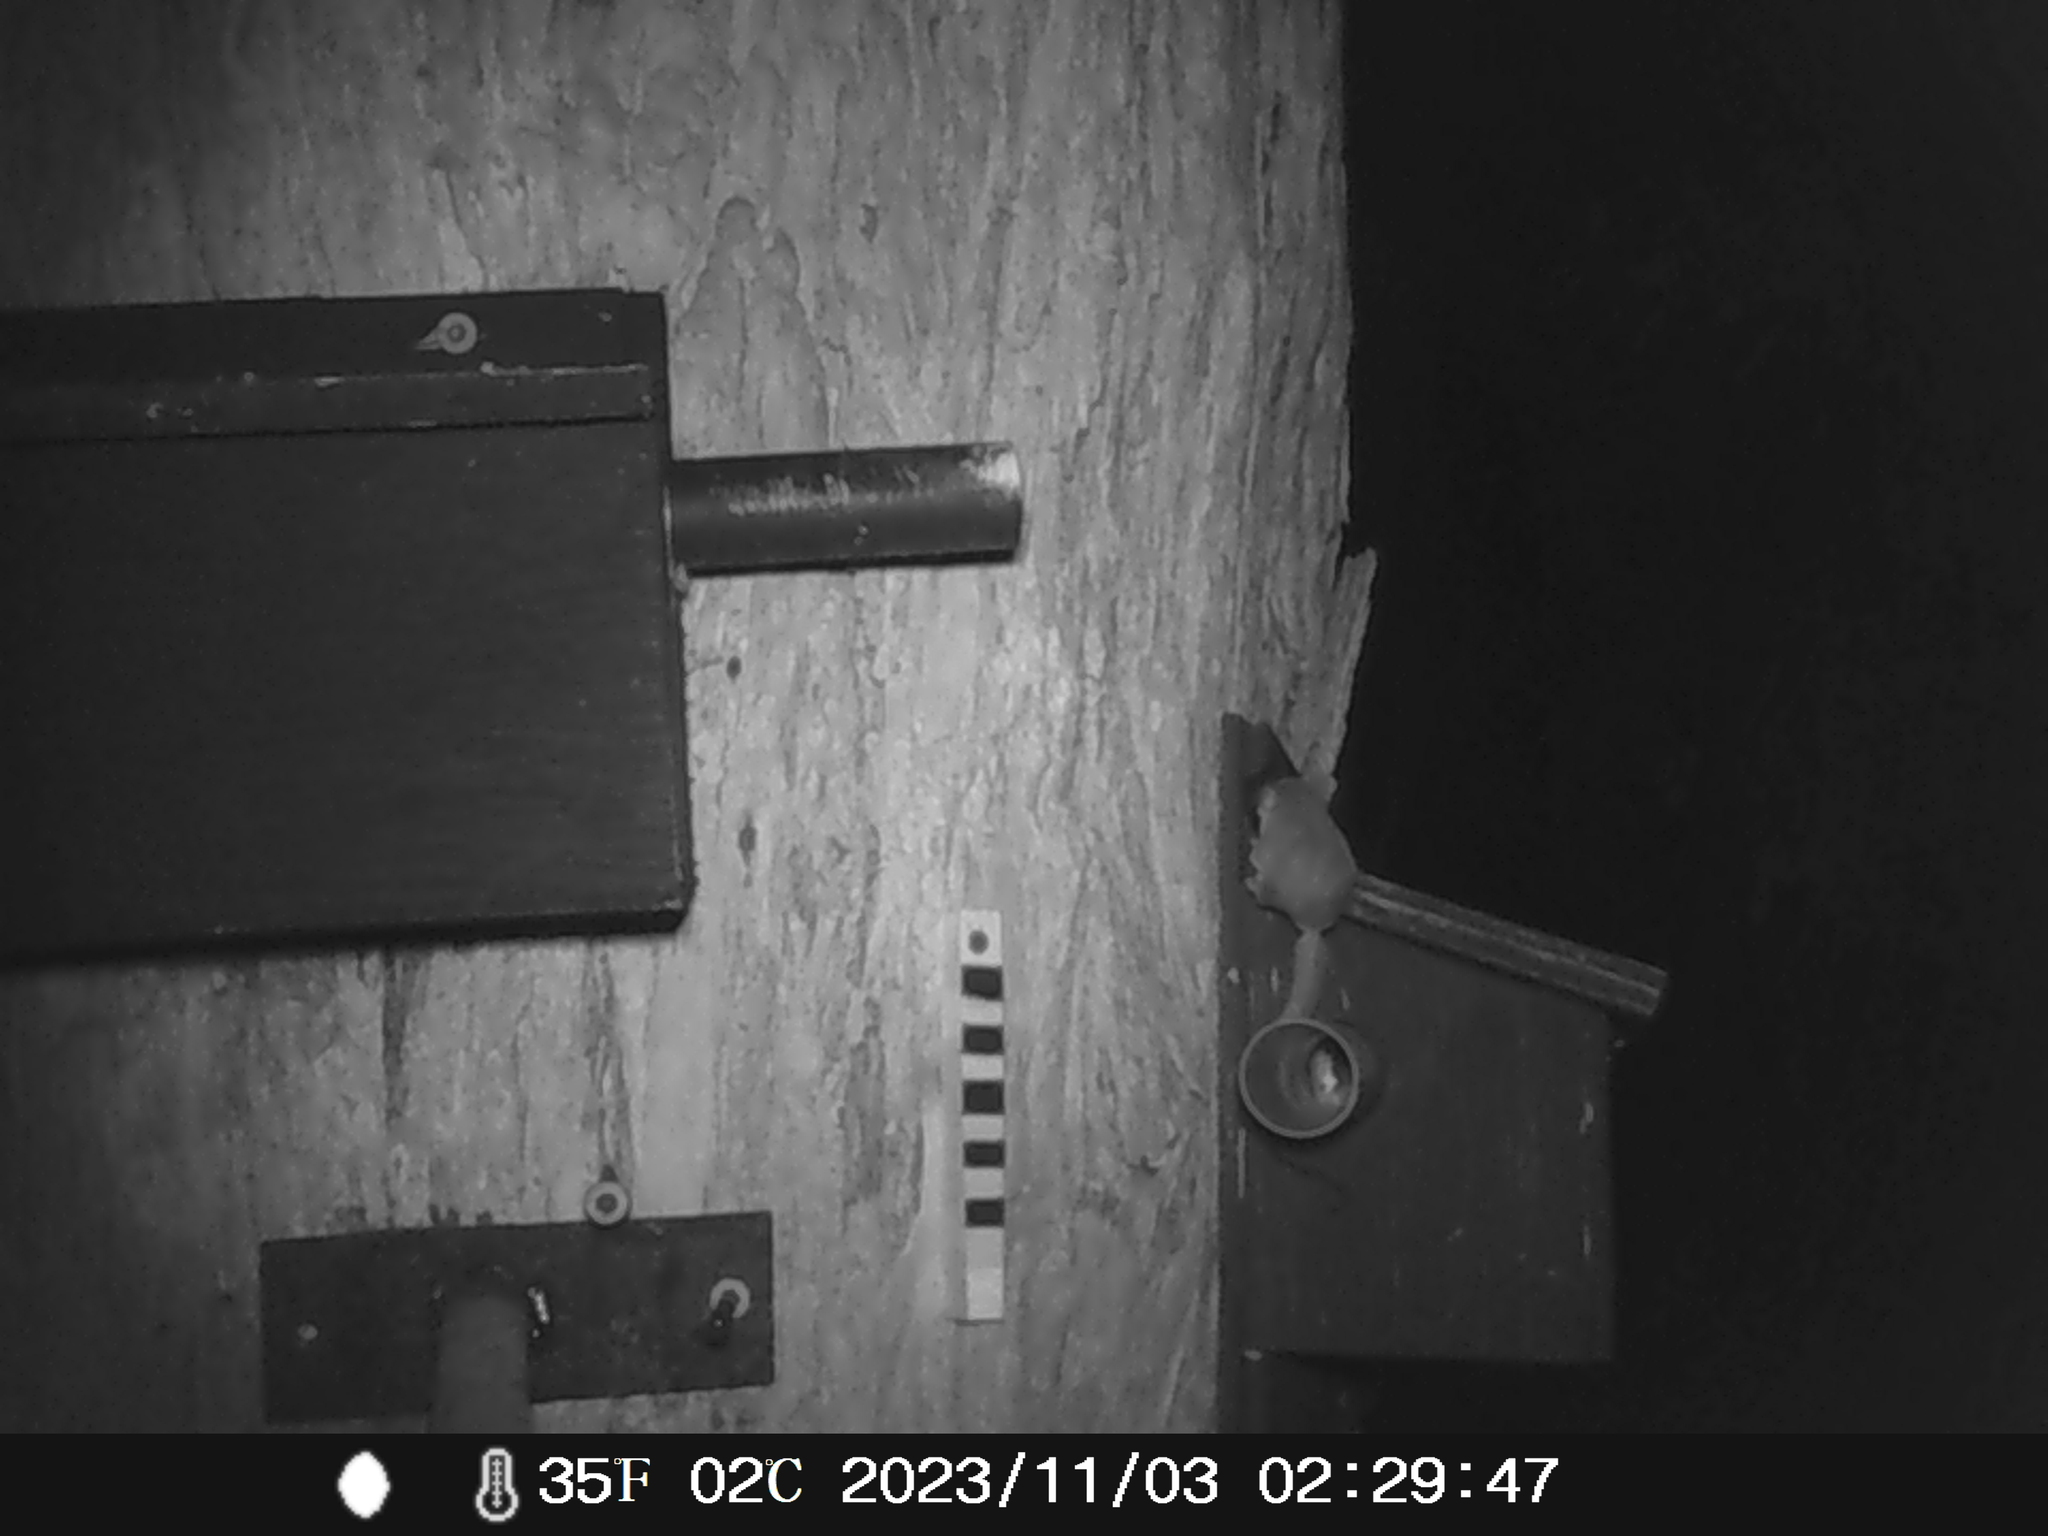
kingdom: Animalia
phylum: Chordata
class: Mammalia
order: Diprotodontia
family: Acrobatidae
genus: Acrobates
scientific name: Acrobates pygmaeus
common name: Feathertail glider
